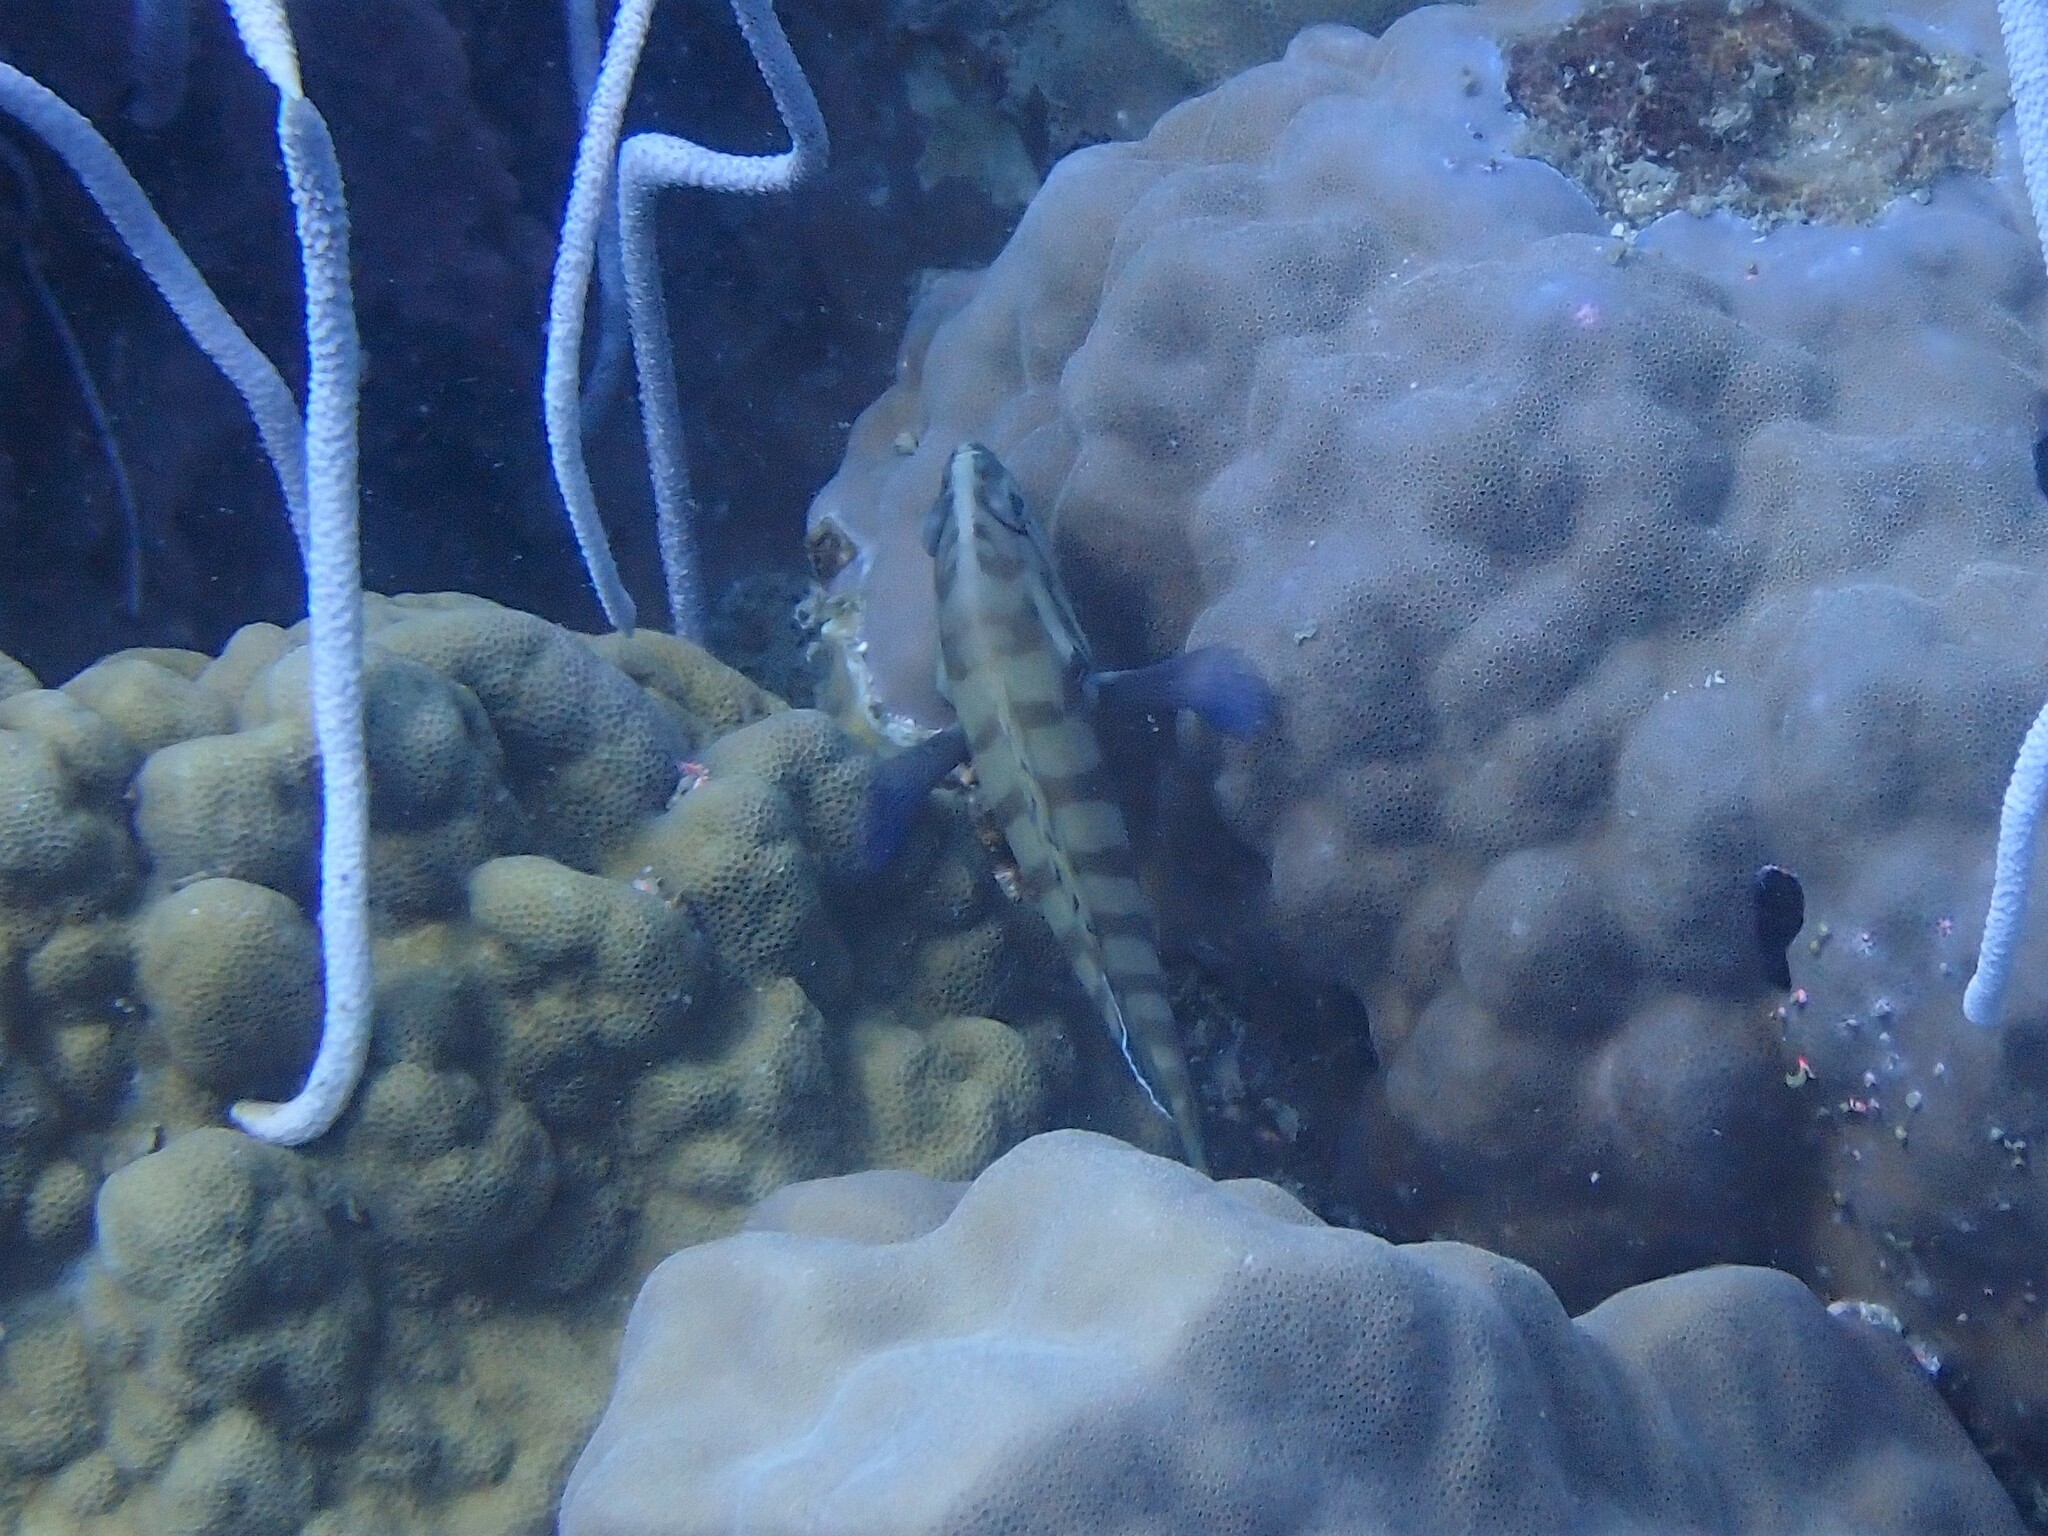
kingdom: Animalia
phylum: Chordata
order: Perciformes
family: Serranidae
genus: Cephalopholis
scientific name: Cephalopholis boenak
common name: Chocolate hind
